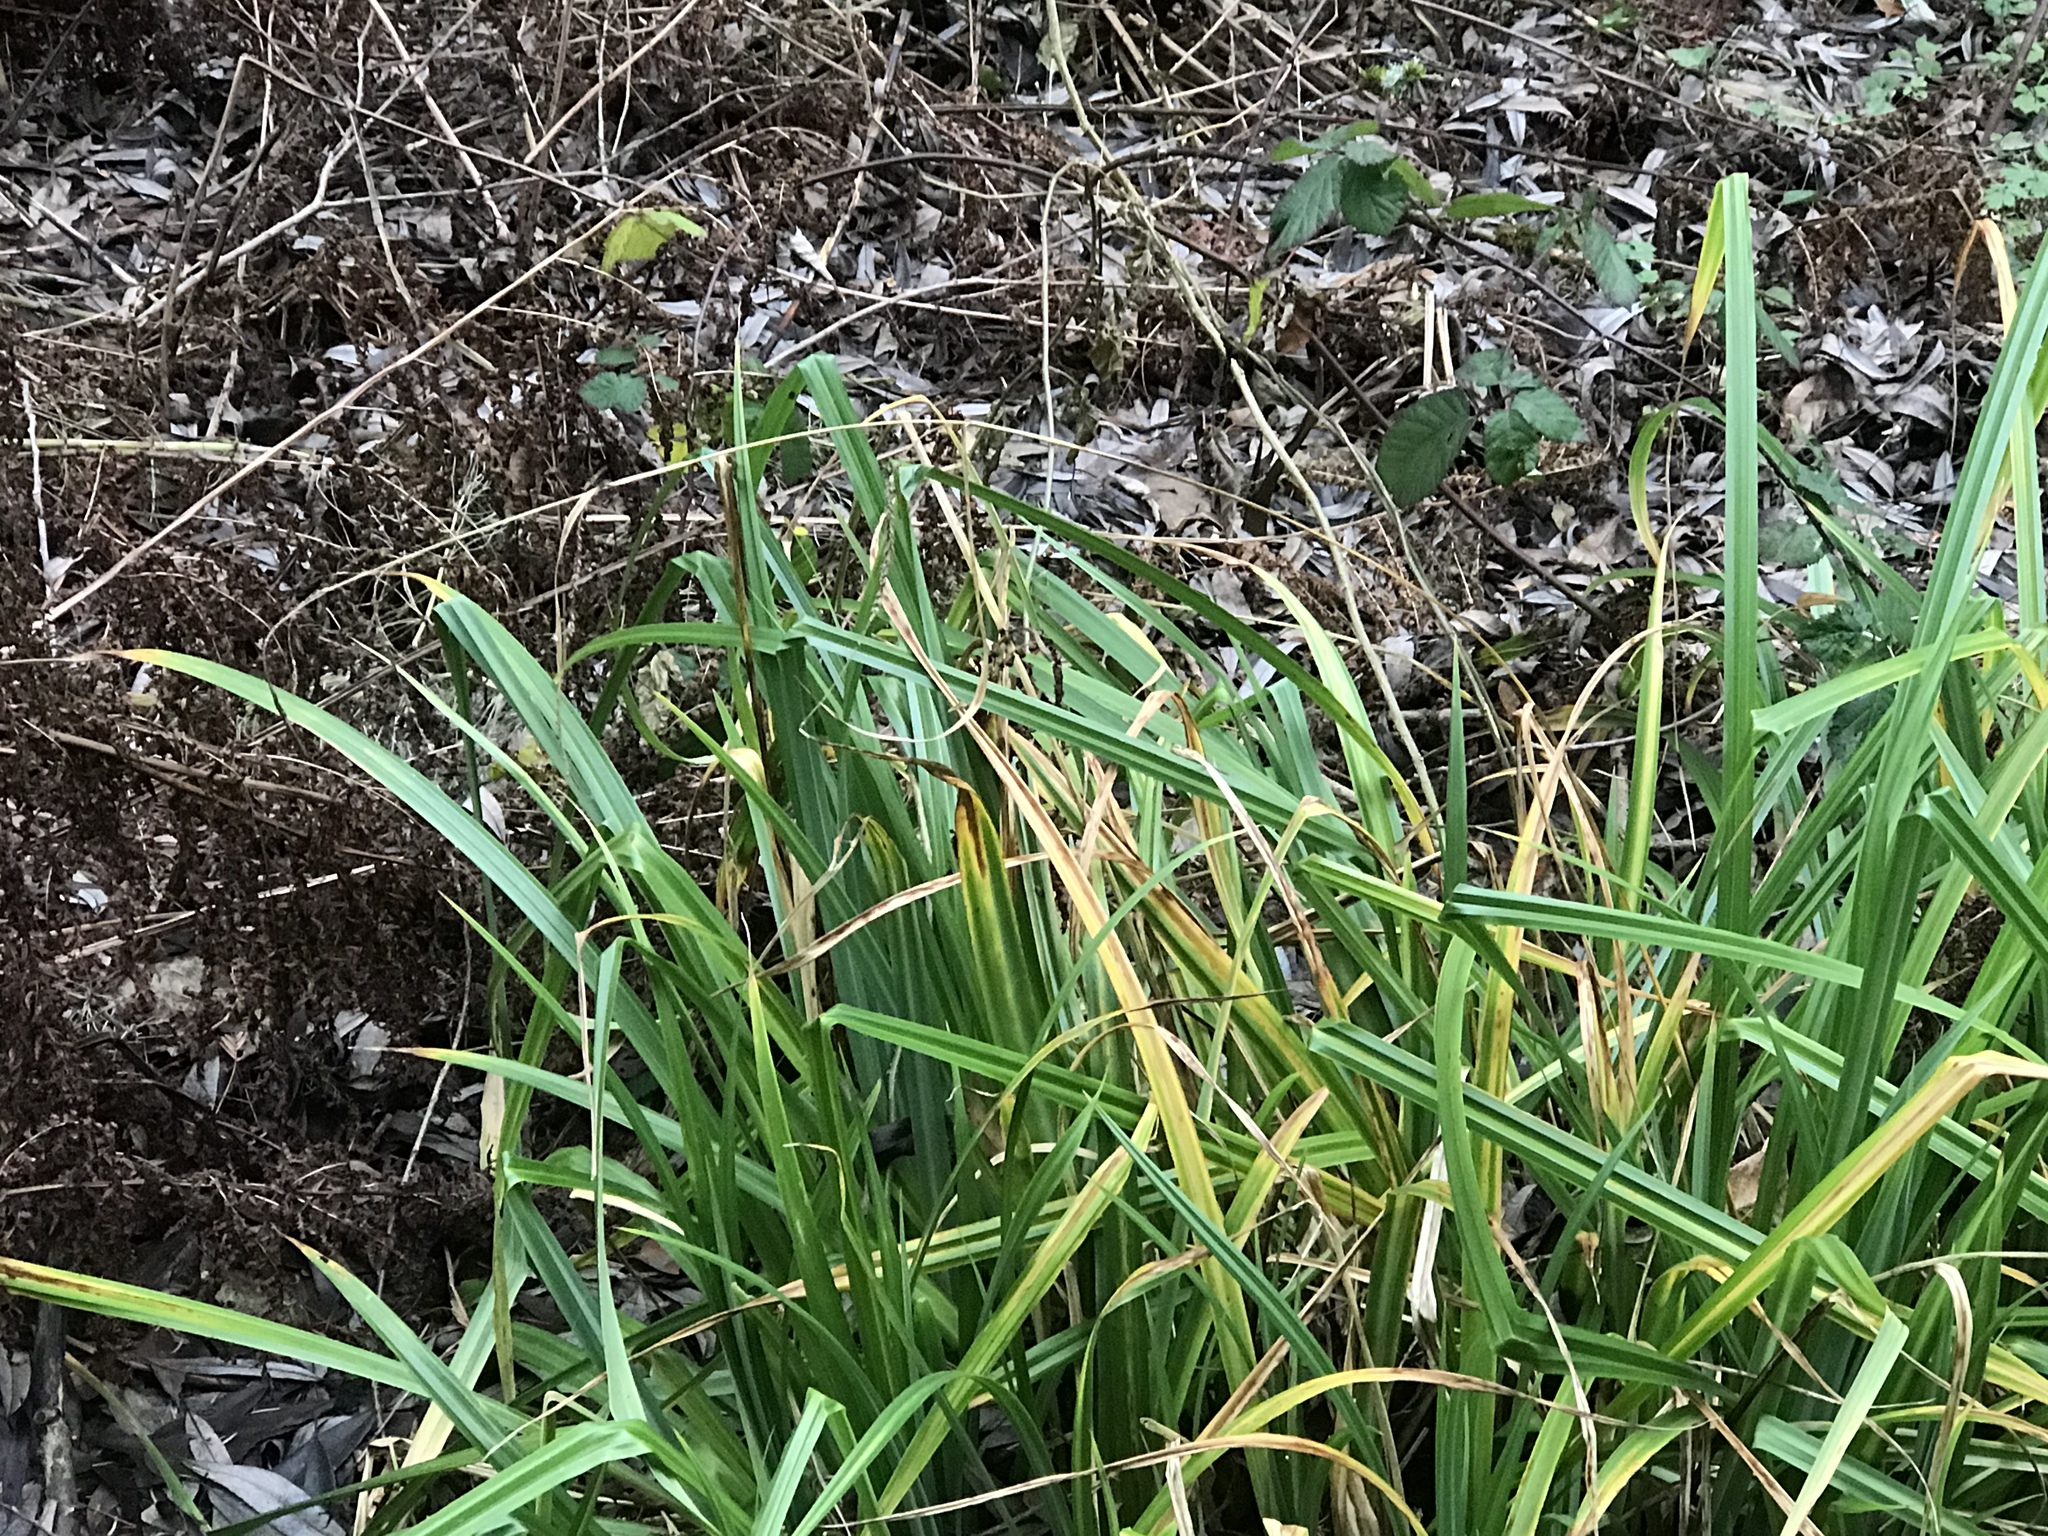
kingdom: Plantae
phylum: Tracheophyta
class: Liliopsida
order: Poales
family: Cyperaceae
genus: Carex
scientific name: Carex pendula
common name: Pendulous sedge
